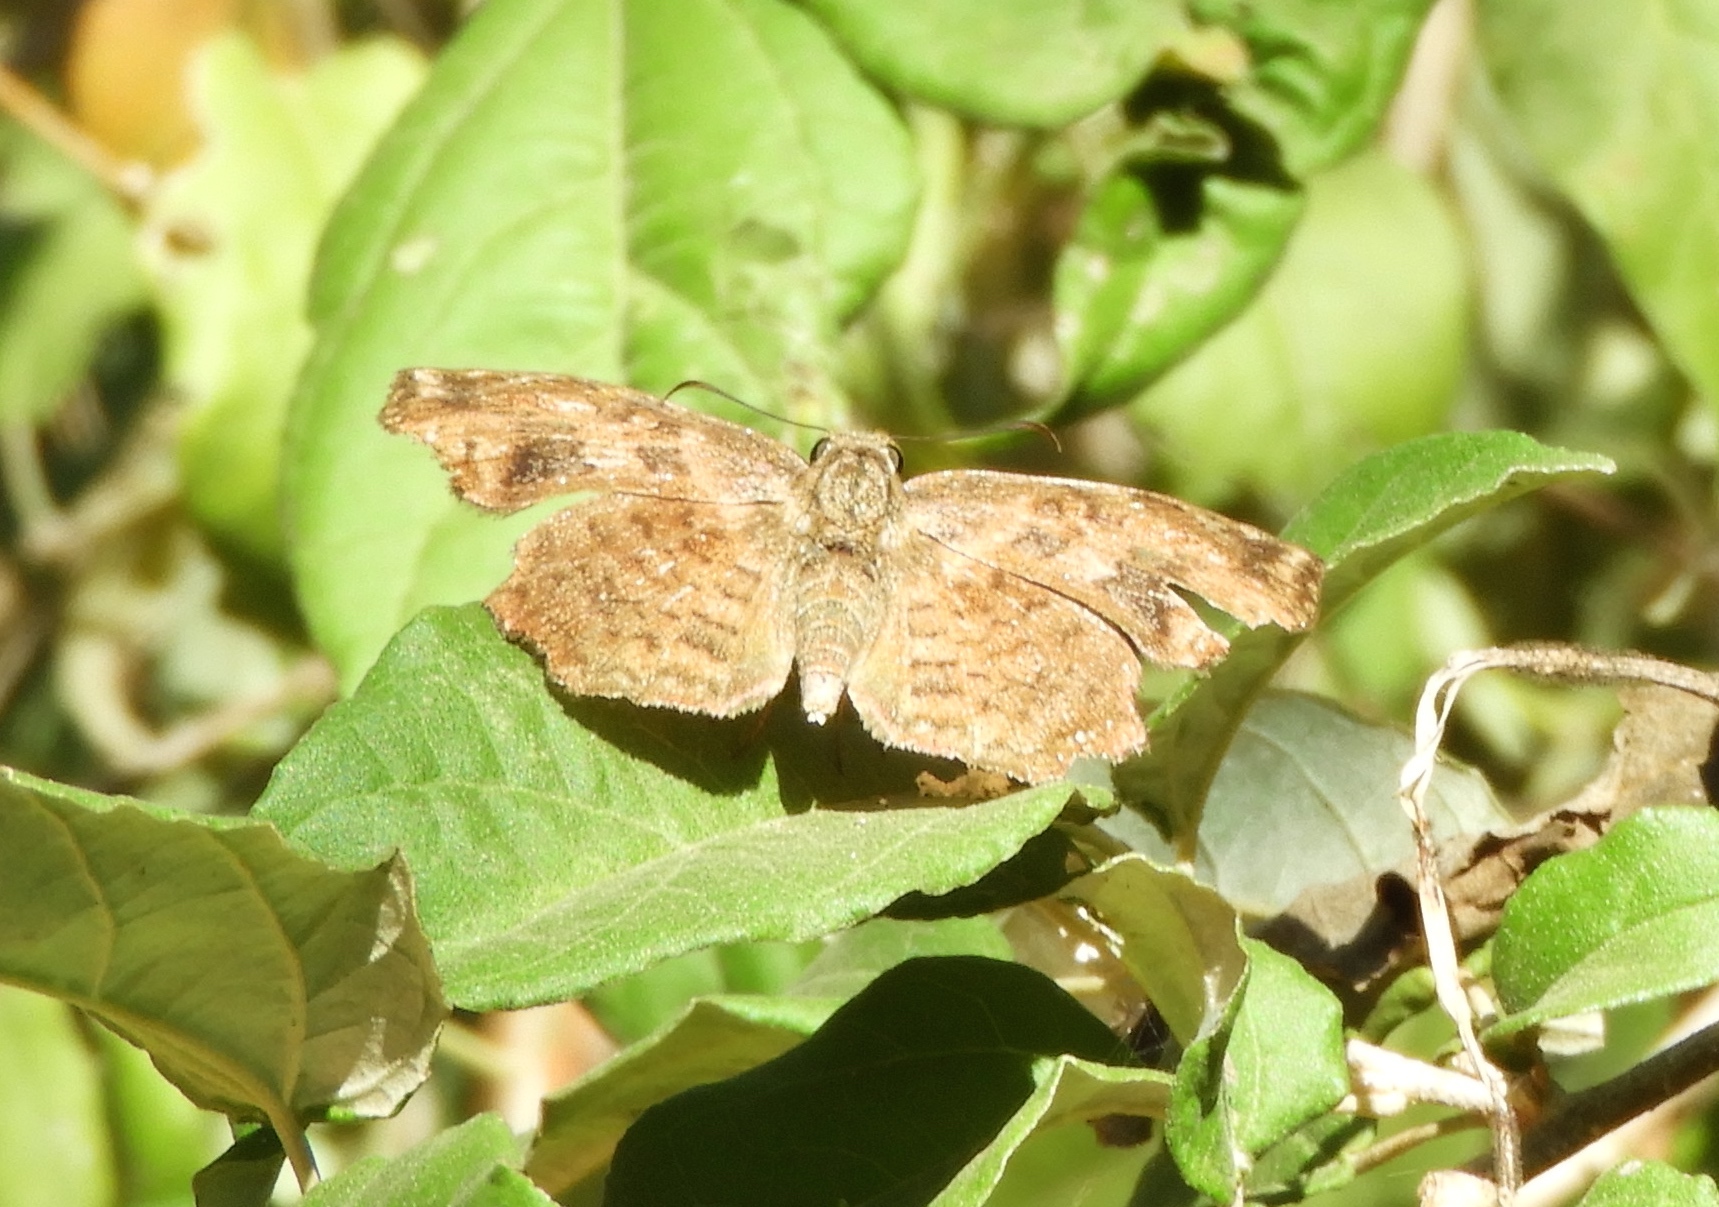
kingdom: Animalia
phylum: Arthropoda
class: Insecta
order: Lepidoptera
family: Hesperiidae
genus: Antigonus
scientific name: Antigonus erosus
